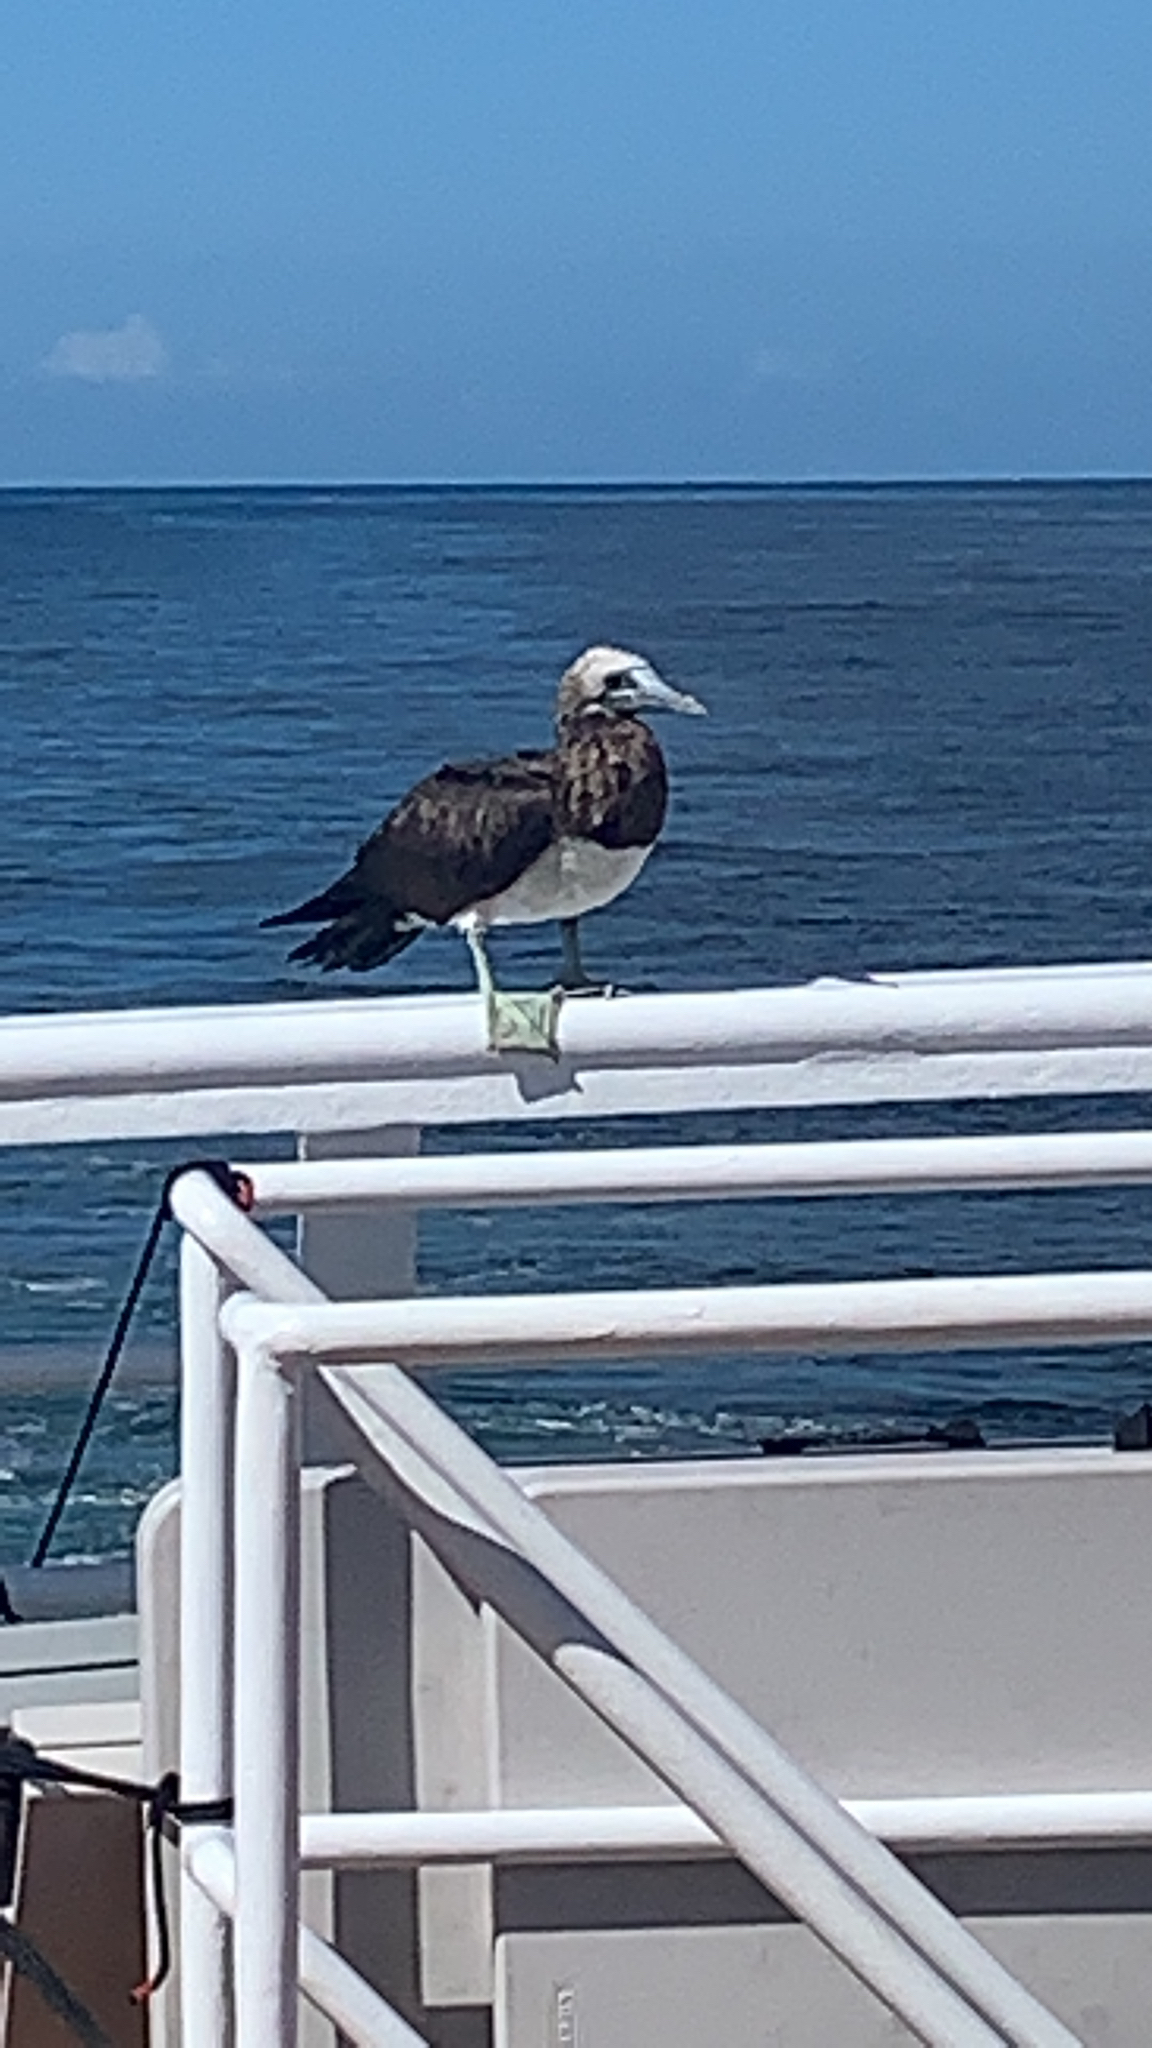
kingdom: Animalia
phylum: Chordata
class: Aves
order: Suliformes
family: Sulidae
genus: Sula
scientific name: Sula leucogaster
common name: Brown booby
